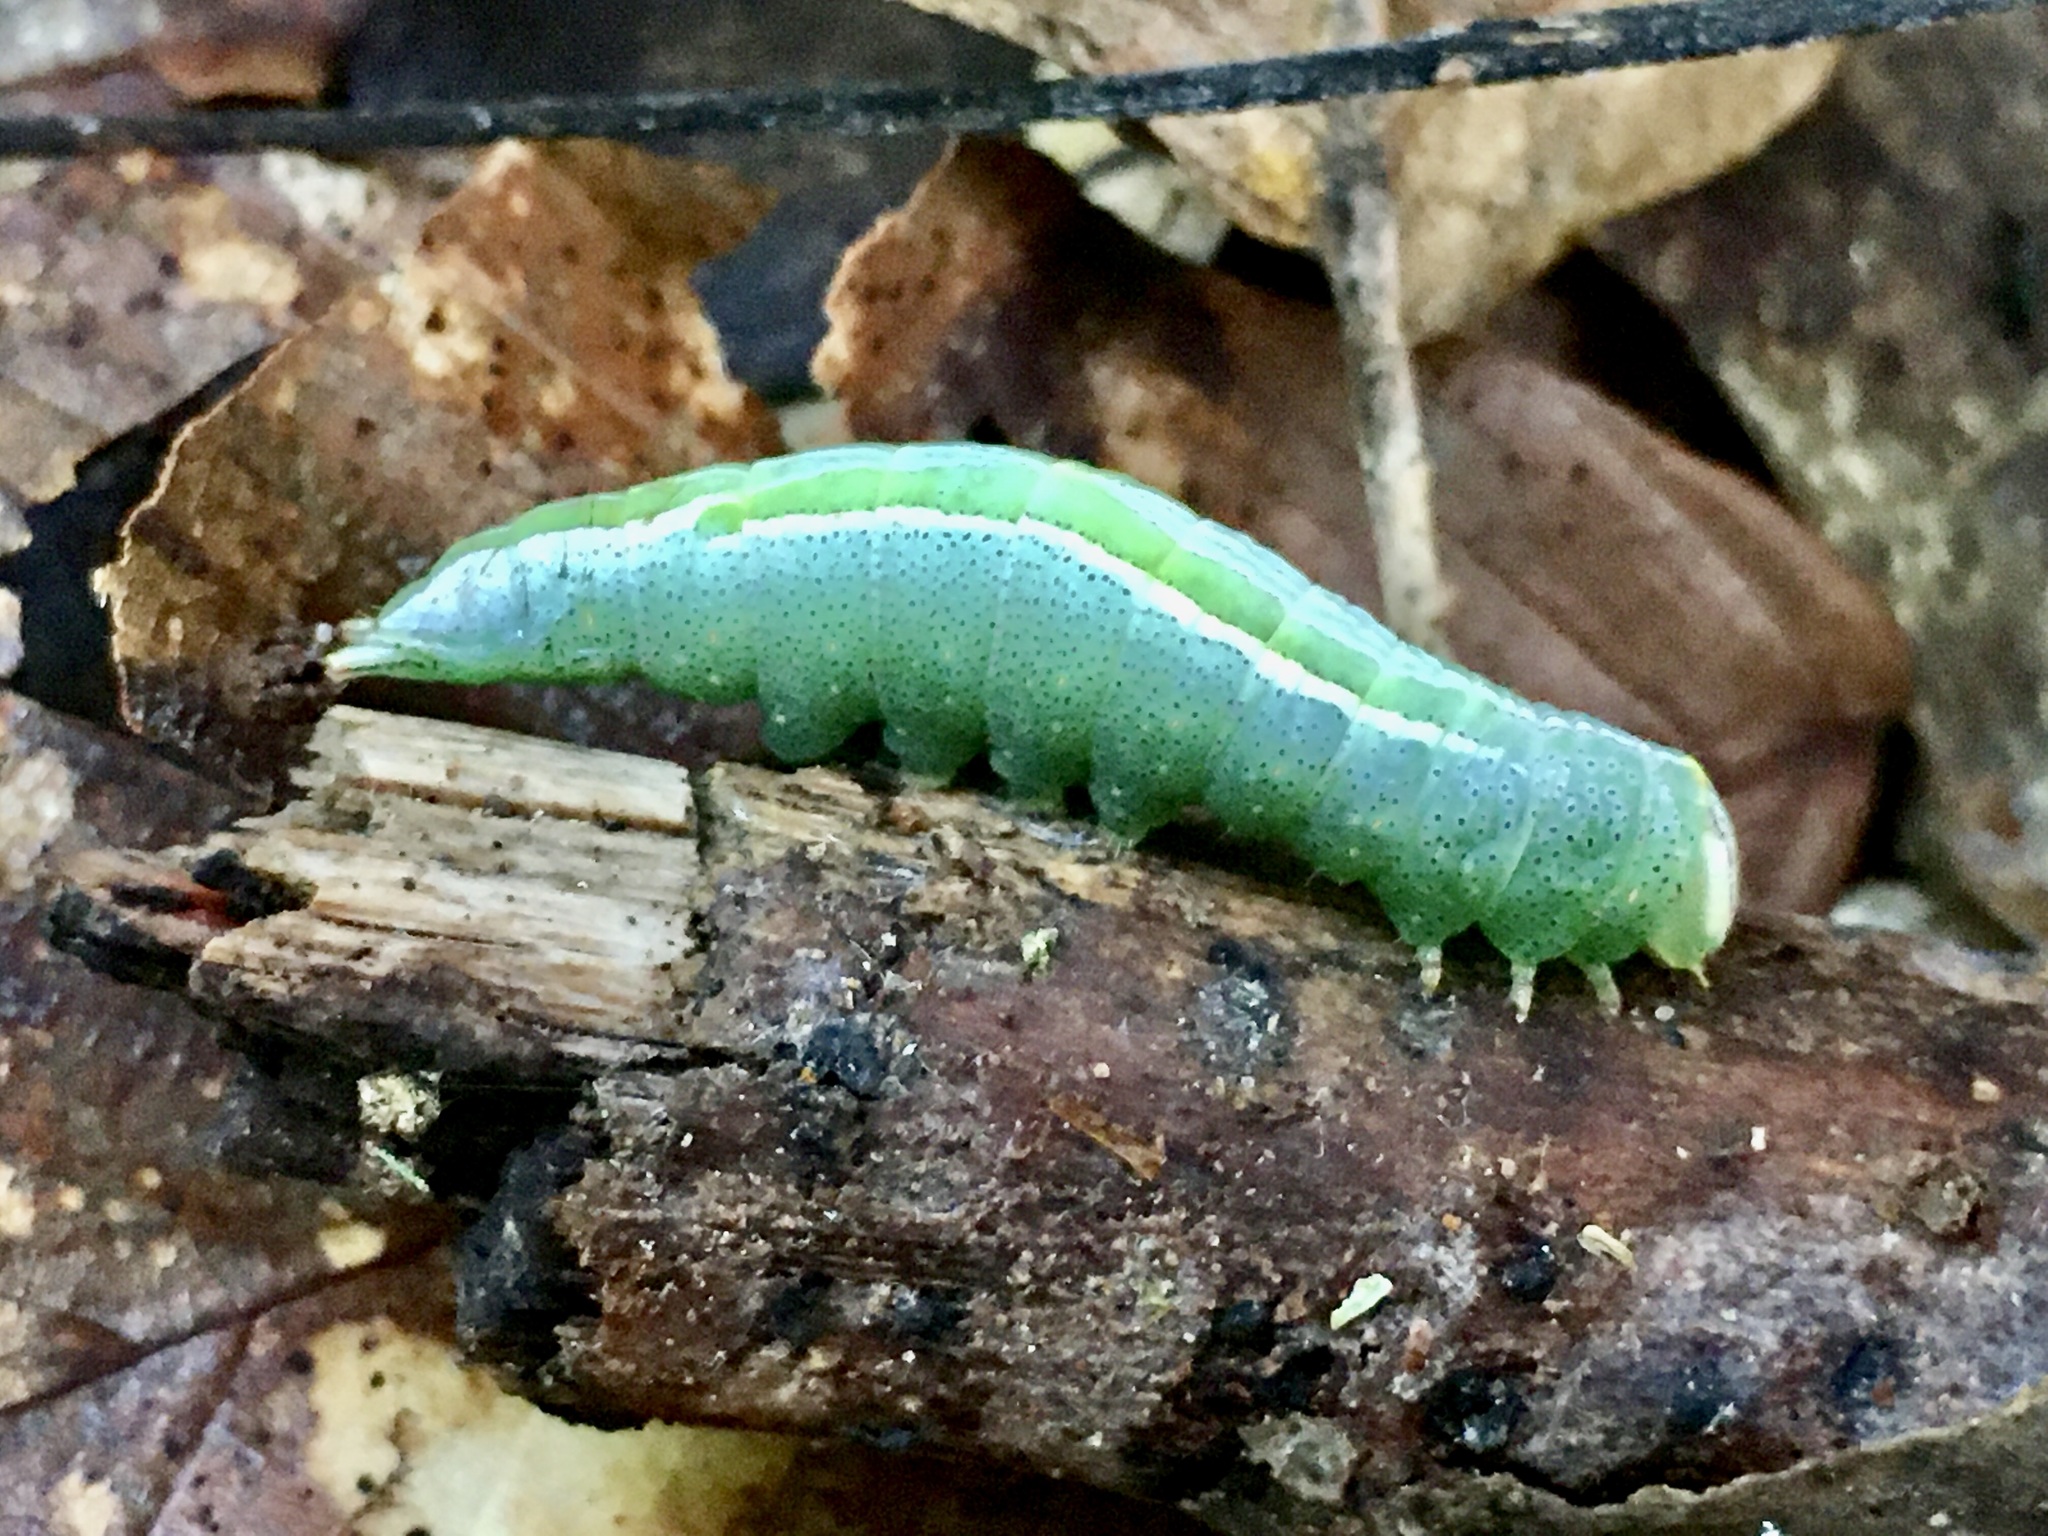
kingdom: Animalia
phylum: Arthropoda
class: Insecta
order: Lepidoptera
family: Notodontidae
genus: Disphragis
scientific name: Disphragis Cecrita guttivitta
